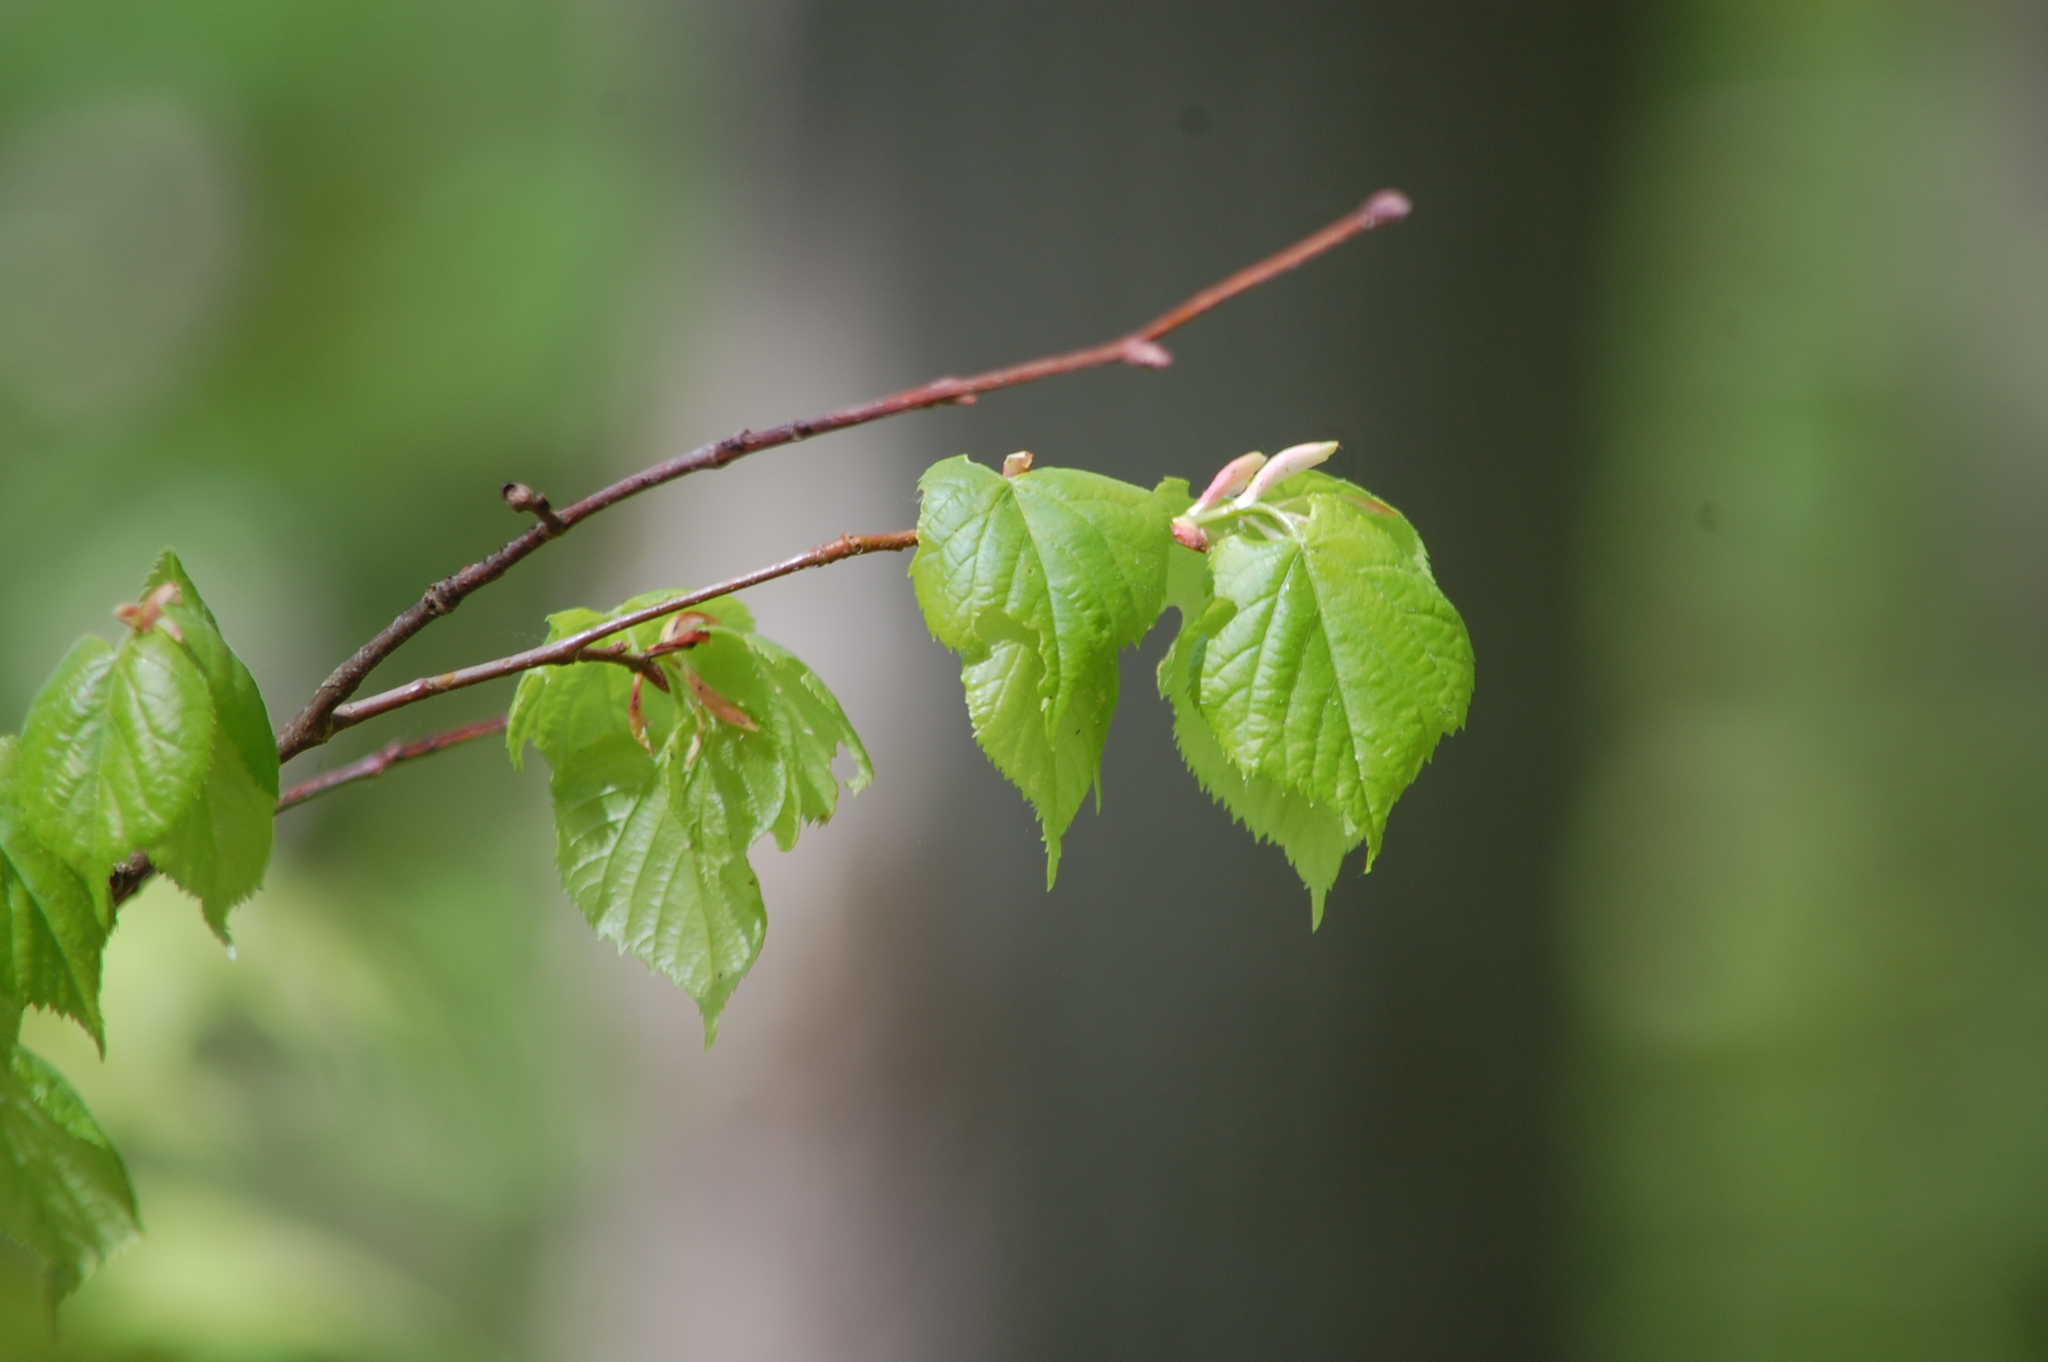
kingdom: Plantae
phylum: Tracheophyta
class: Magnoliopsida
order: Malvales
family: Malvaceae
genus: Tilia
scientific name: Tilia cordata
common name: Small-leaved lime
